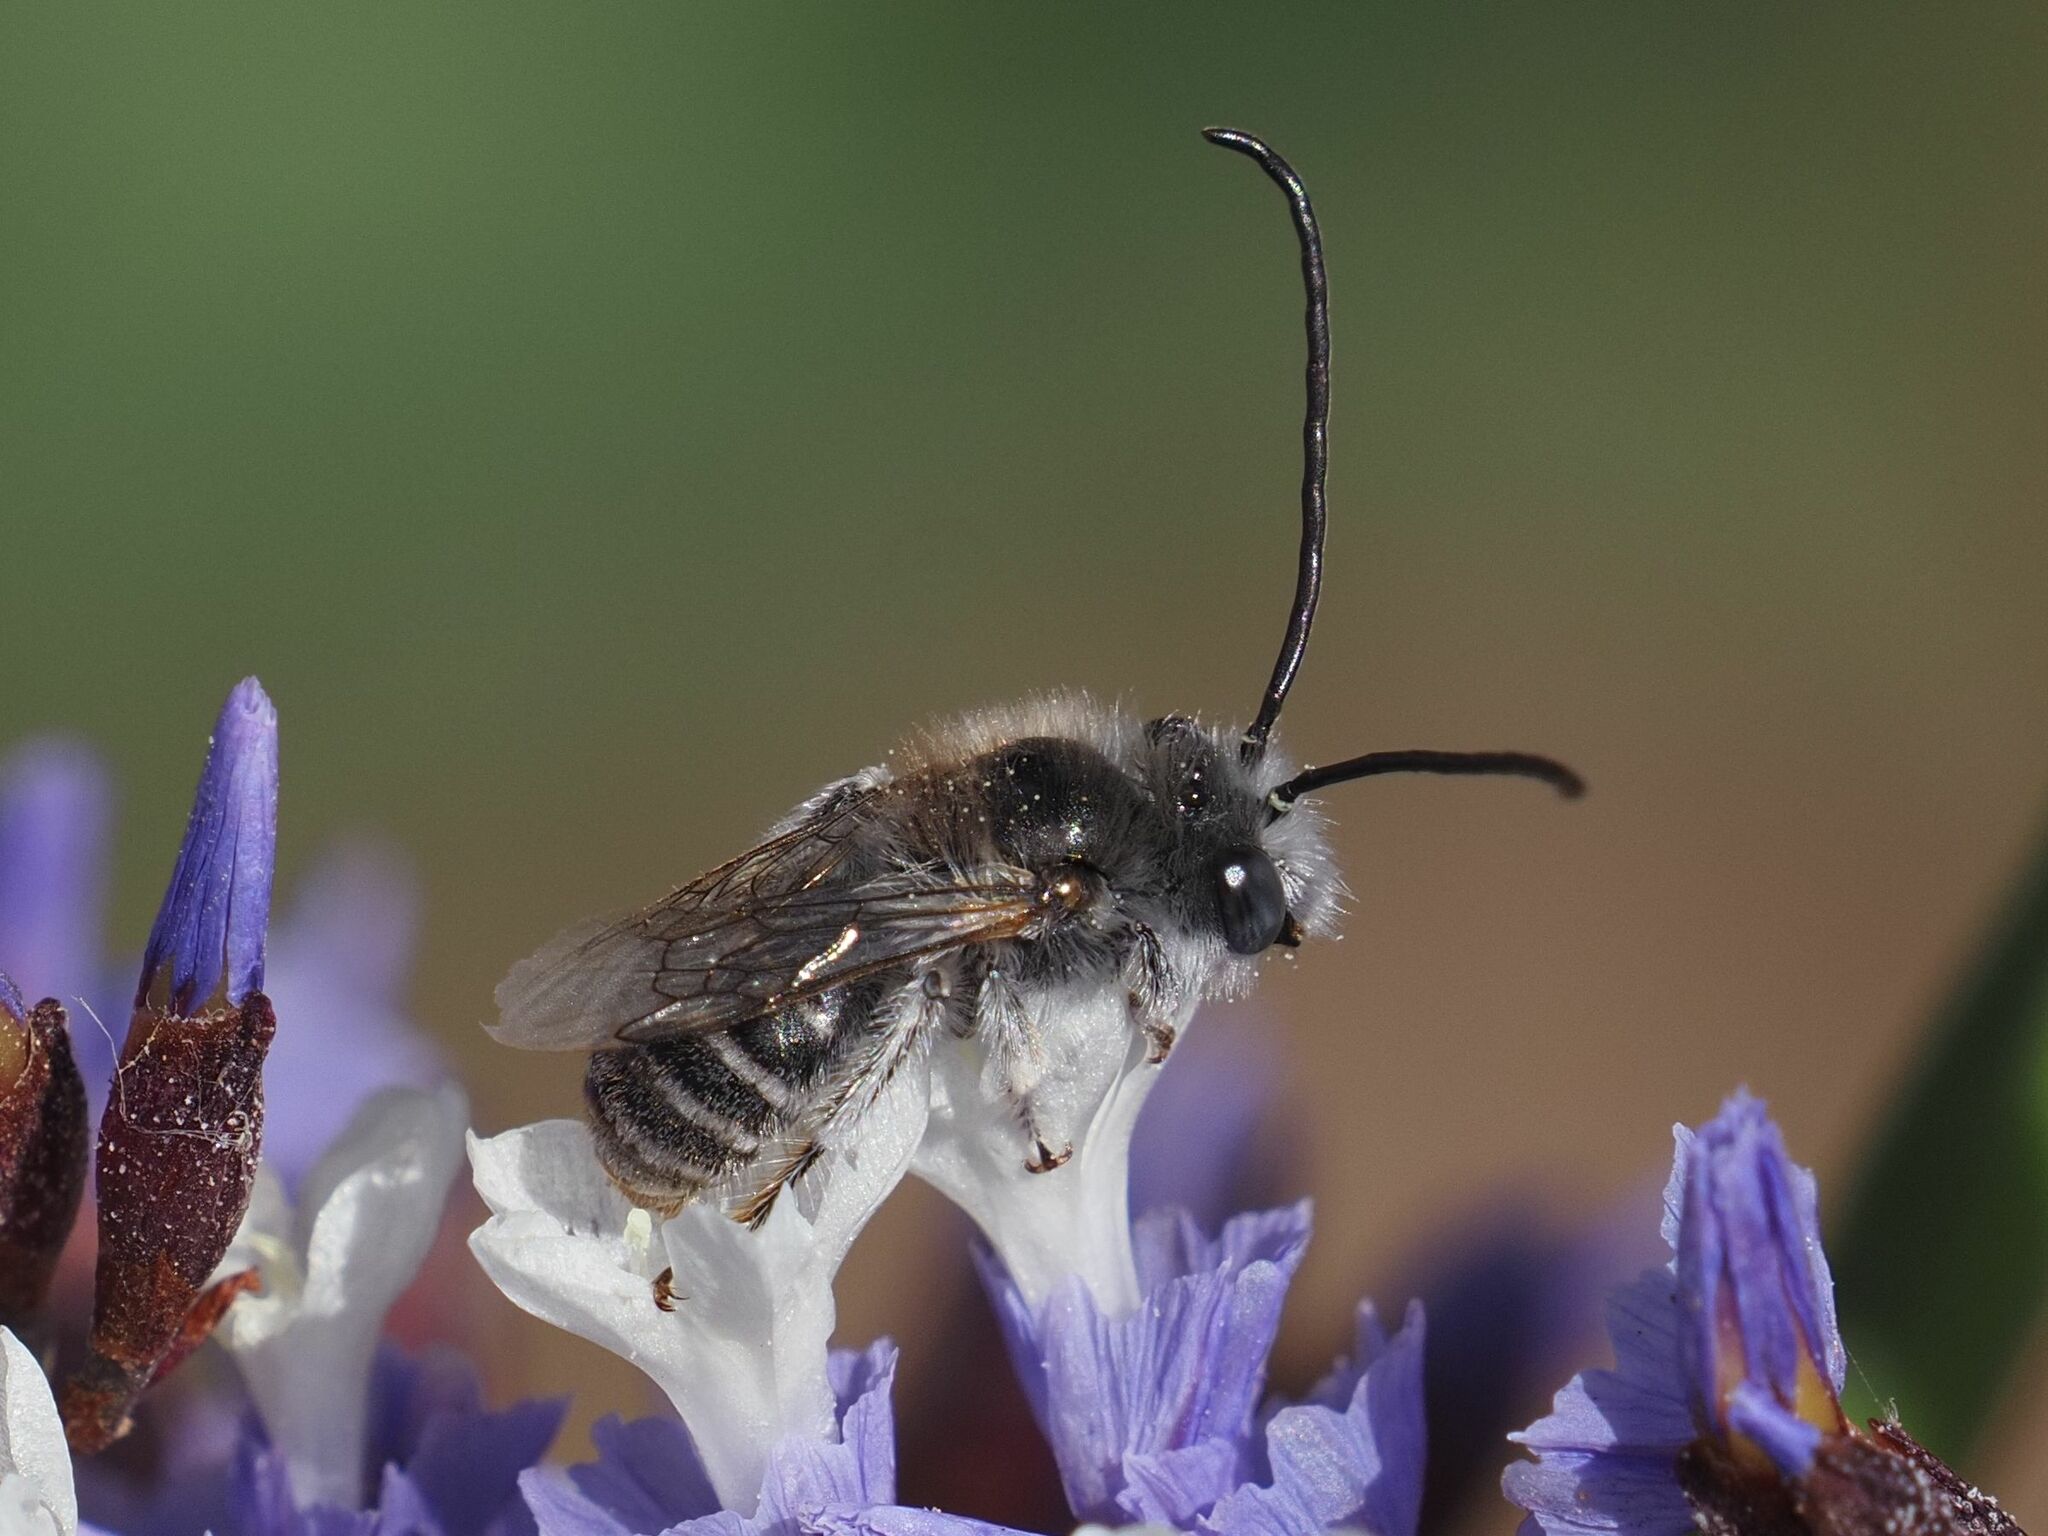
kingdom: Animalia
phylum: Arthropoda
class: Insecta
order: Hymenoptera
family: Apidae
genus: Eucera
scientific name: Eucera maroccana
